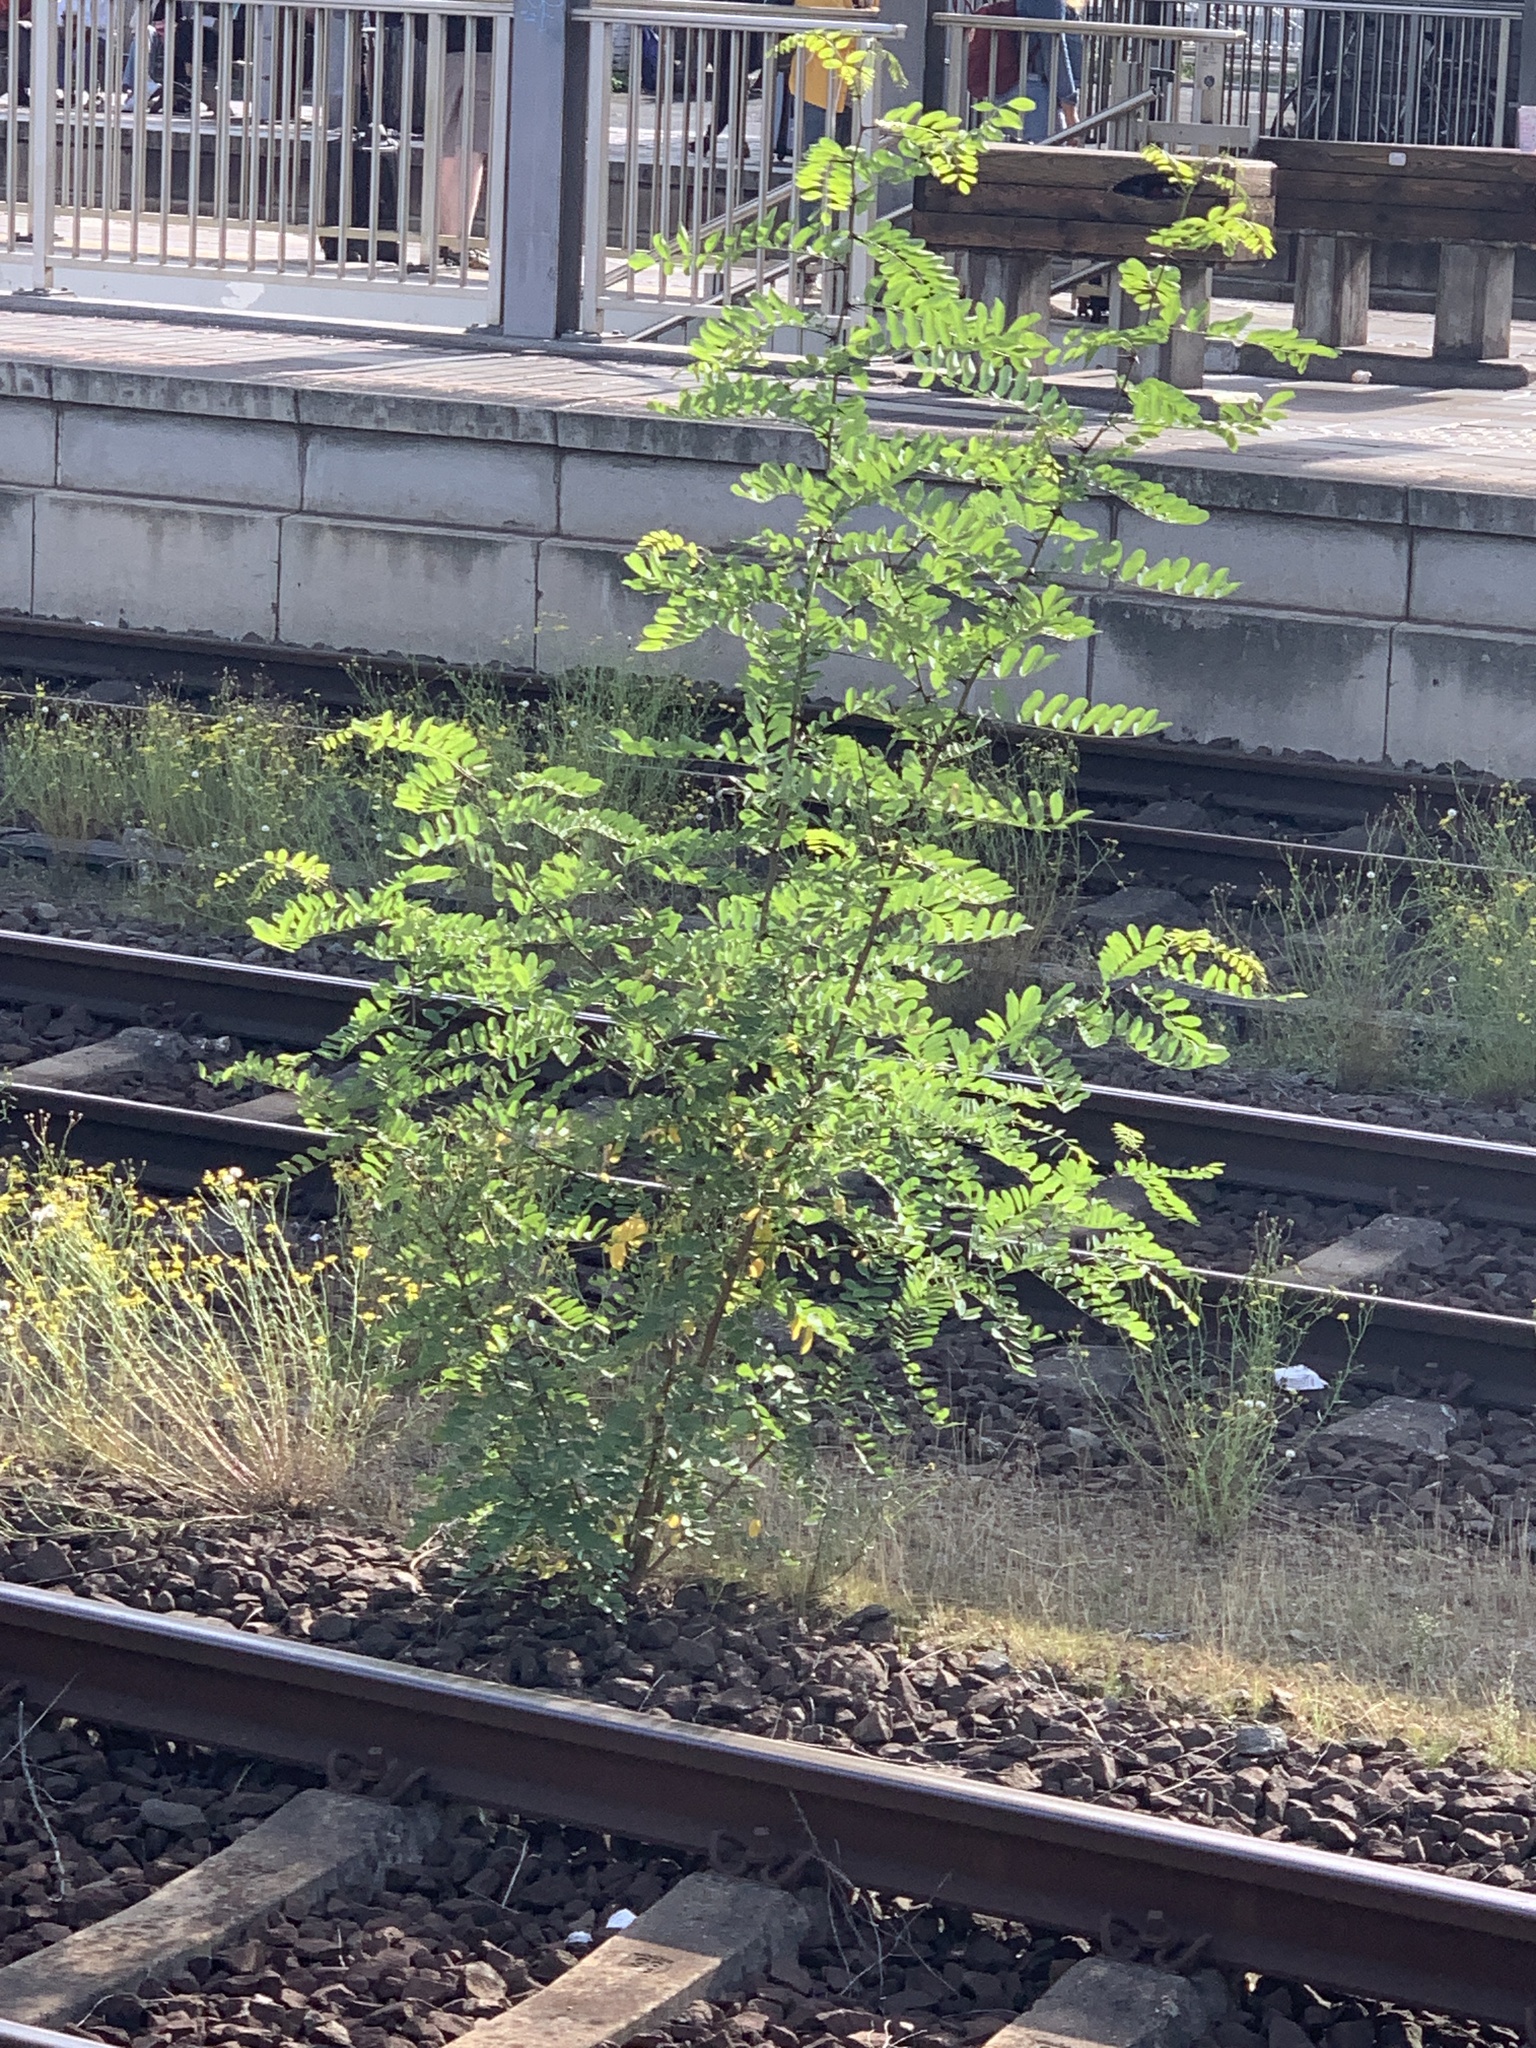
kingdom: Plantae
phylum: Tracheophyta
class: Magnoliopsida
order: Fabales
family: Fabaceae
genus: Robinia
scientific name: Robinia pseudoacacia
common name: Black locust
